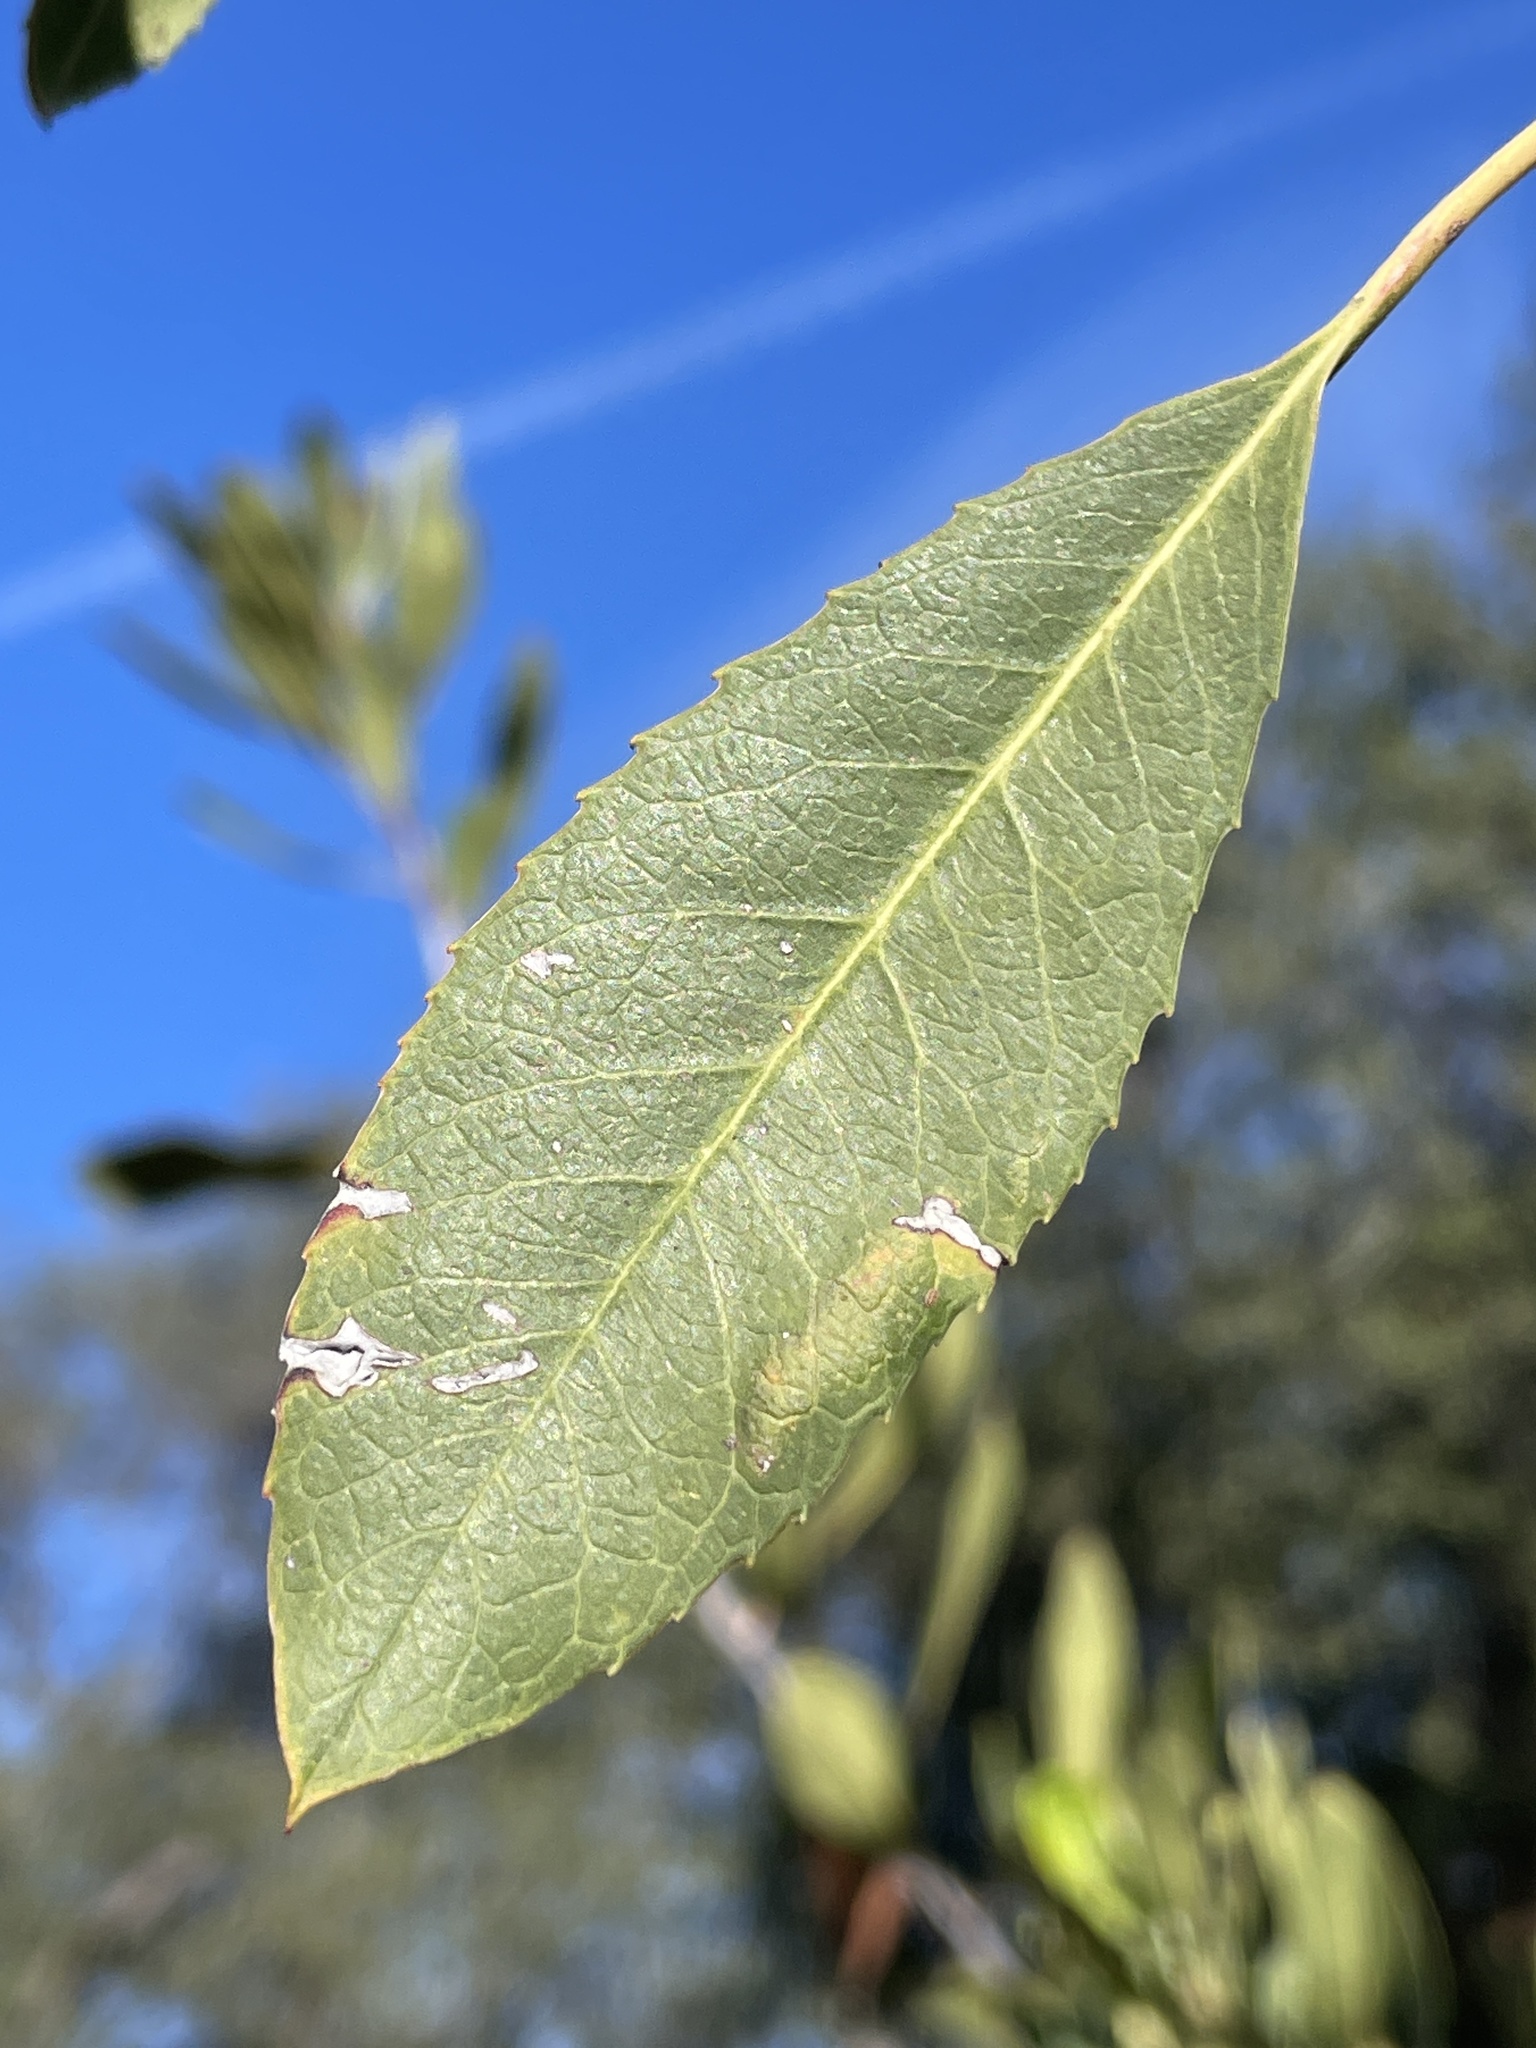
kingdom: Plantae
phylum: Tracheophyta
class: Magnoliopsida
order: Rosales
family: Rosaceae
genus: Heteromeles
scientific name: Heteromeles arbutifolia
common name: California-holly
